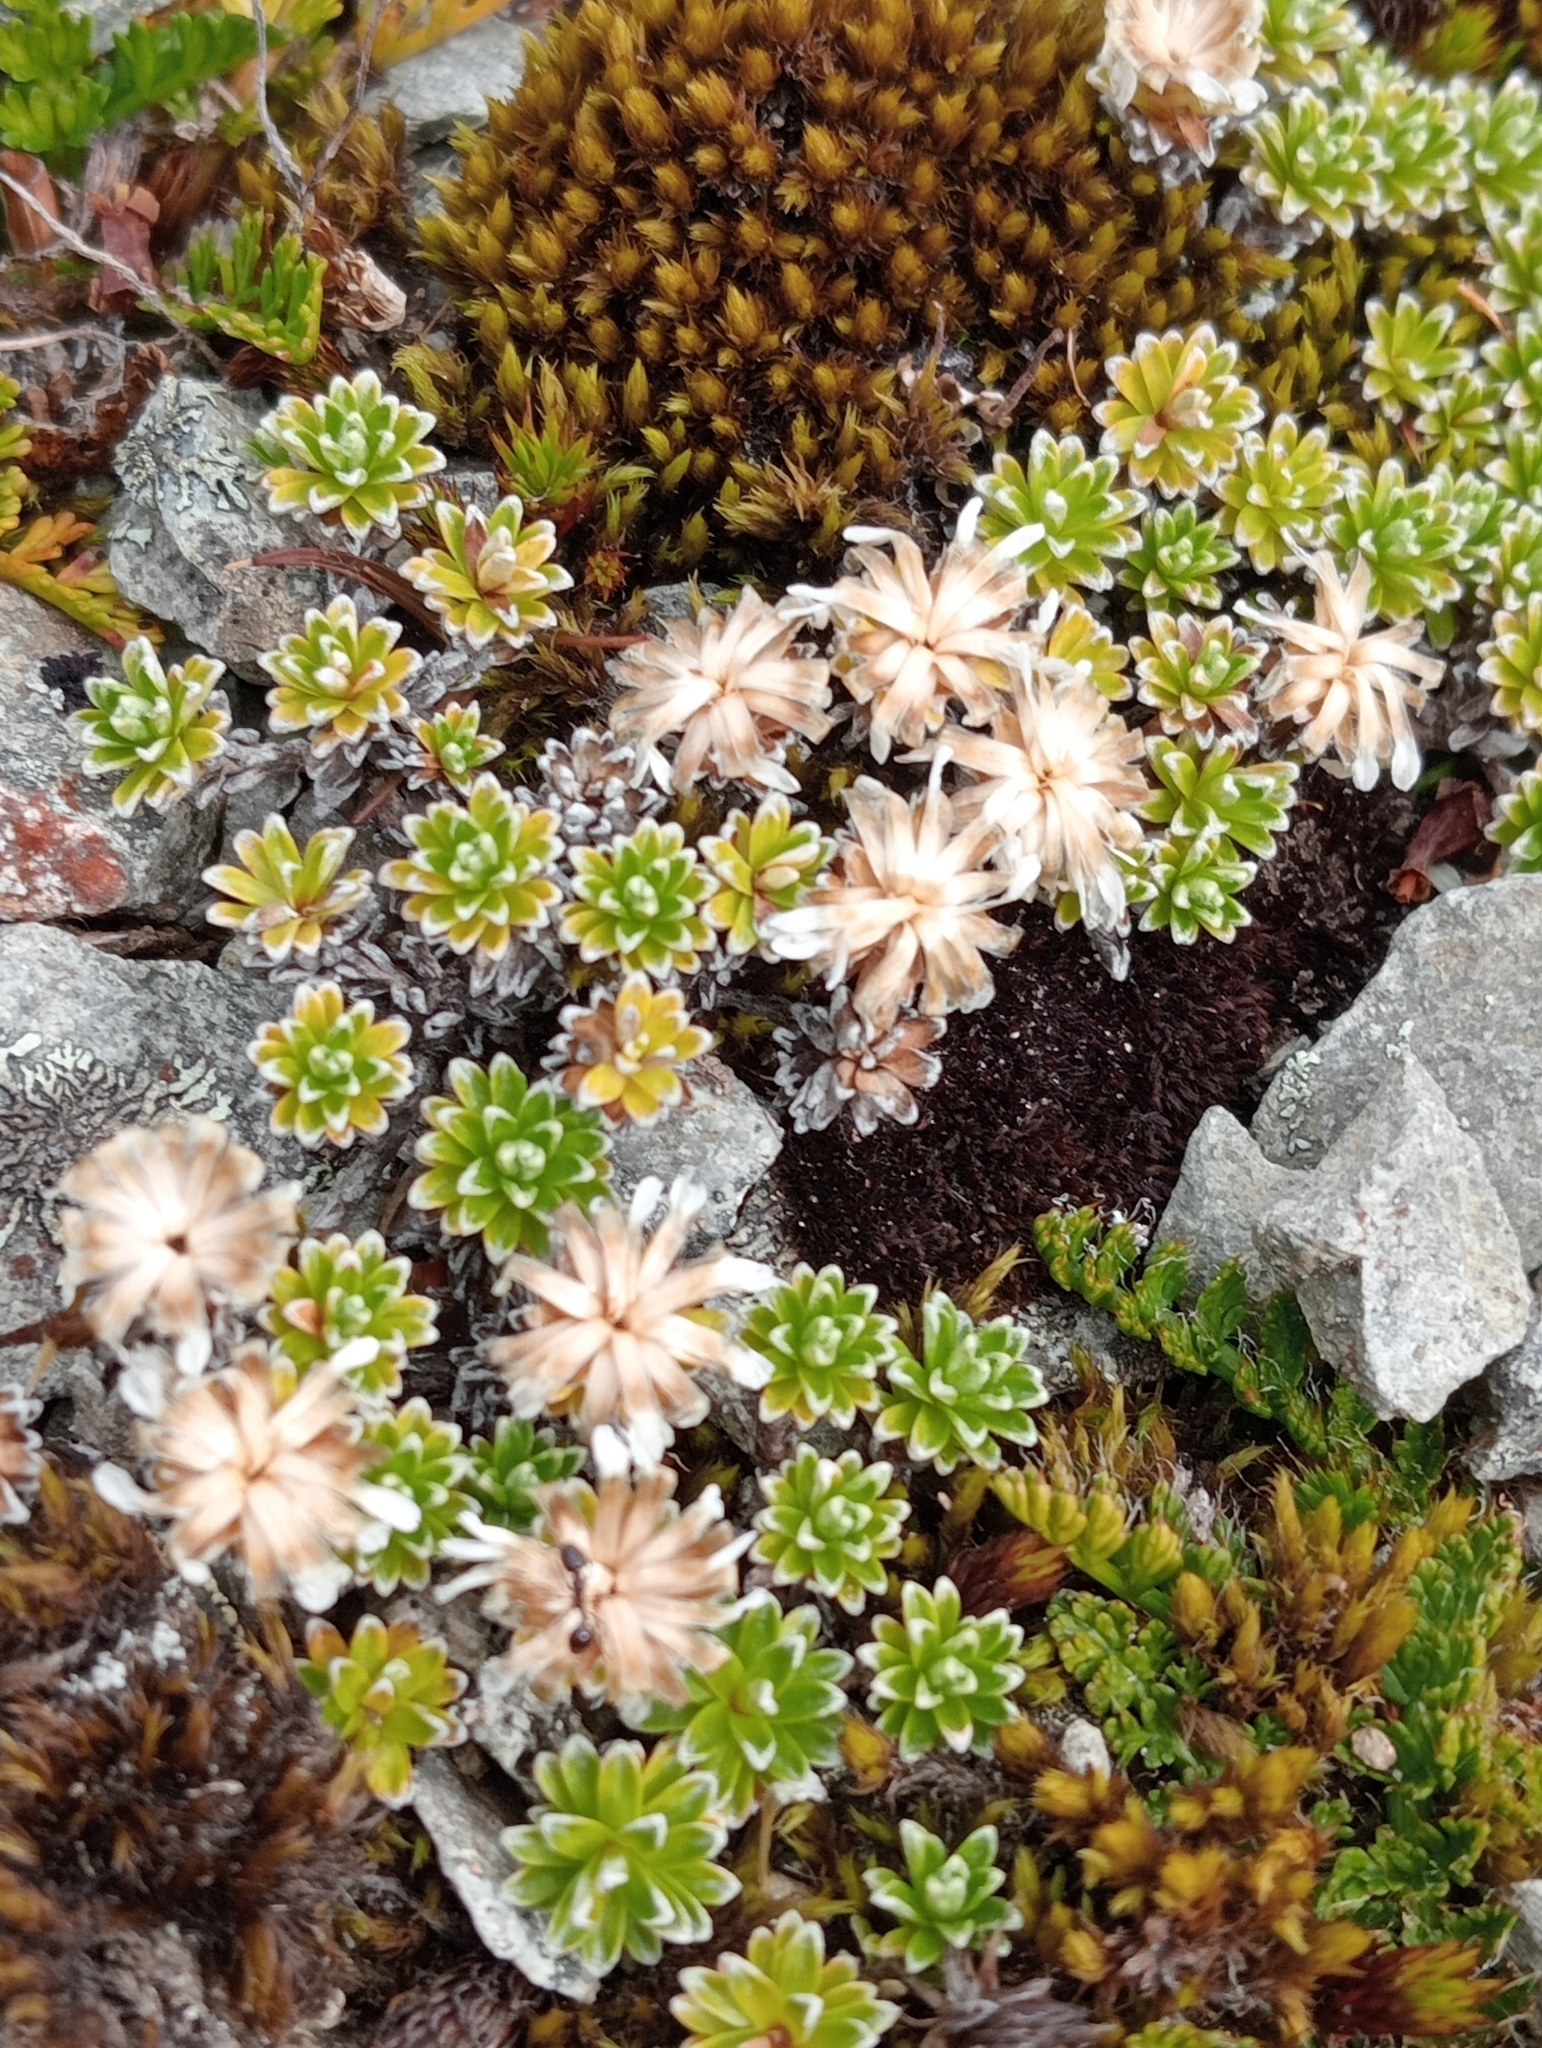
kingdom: Plantae
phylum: Tracheophyta
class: Magnoliopsida
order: Asterales
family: Asteraceae
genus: Raoulia
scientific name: Raoulia subsericea
